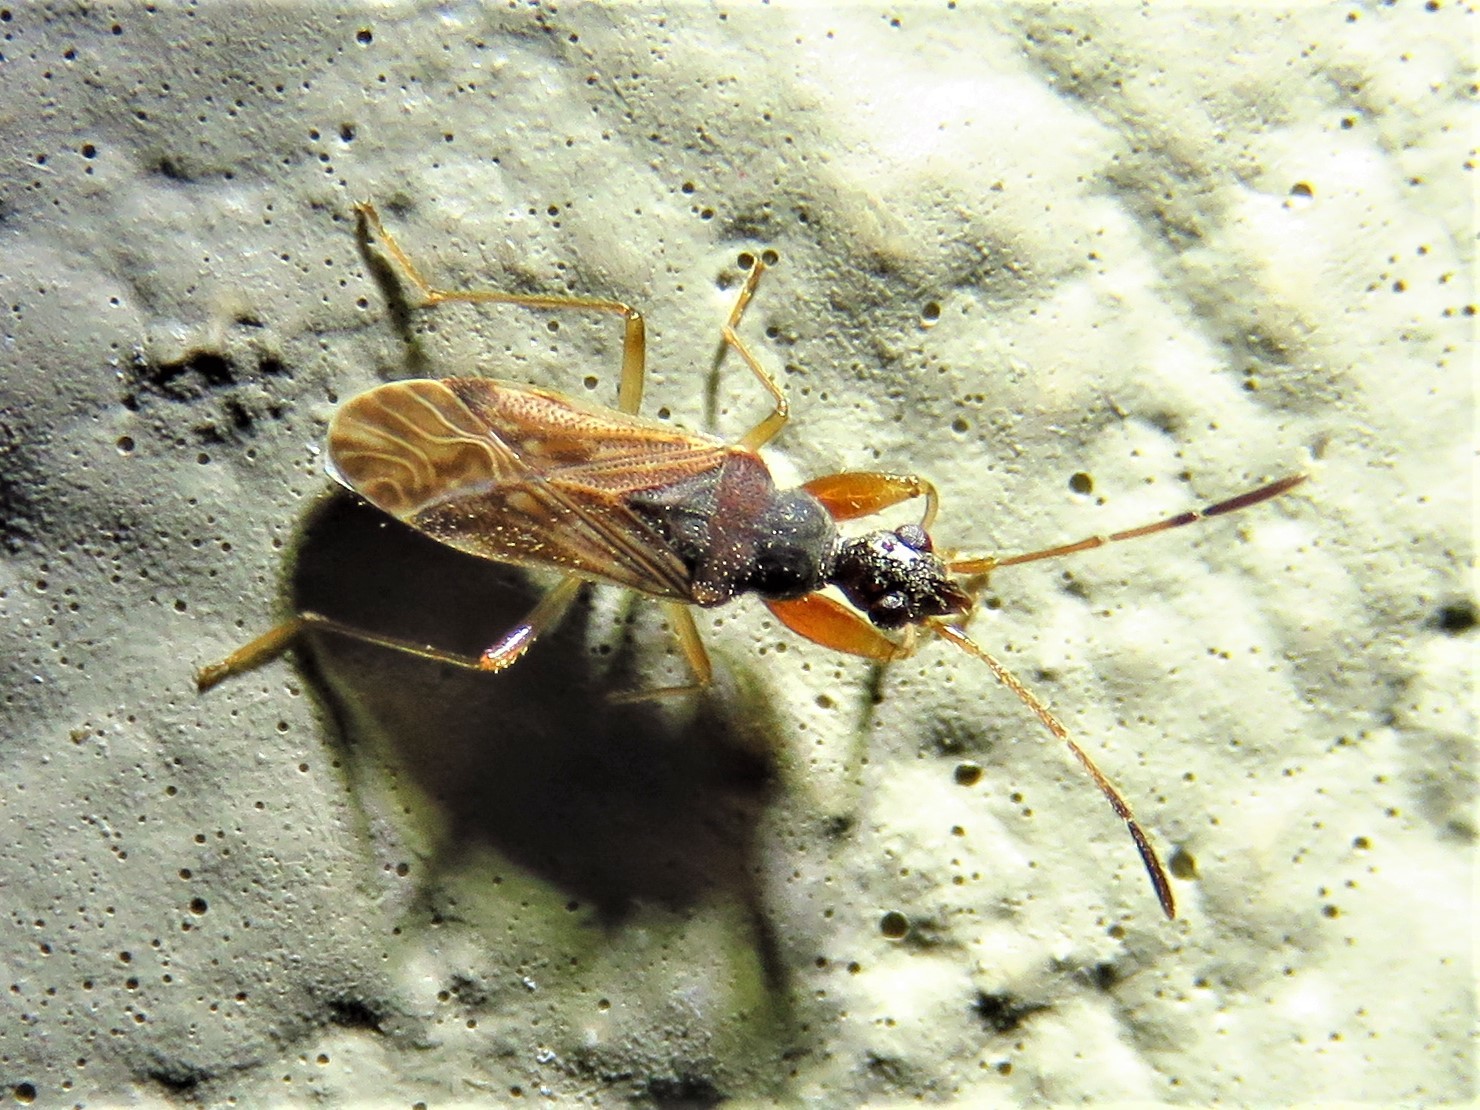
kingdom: Animalia
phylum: Arthropoda
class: Insecta
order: Hemiptera
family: Rhyparochromidae
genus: Heraeus
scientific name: Heraeus plebejus
